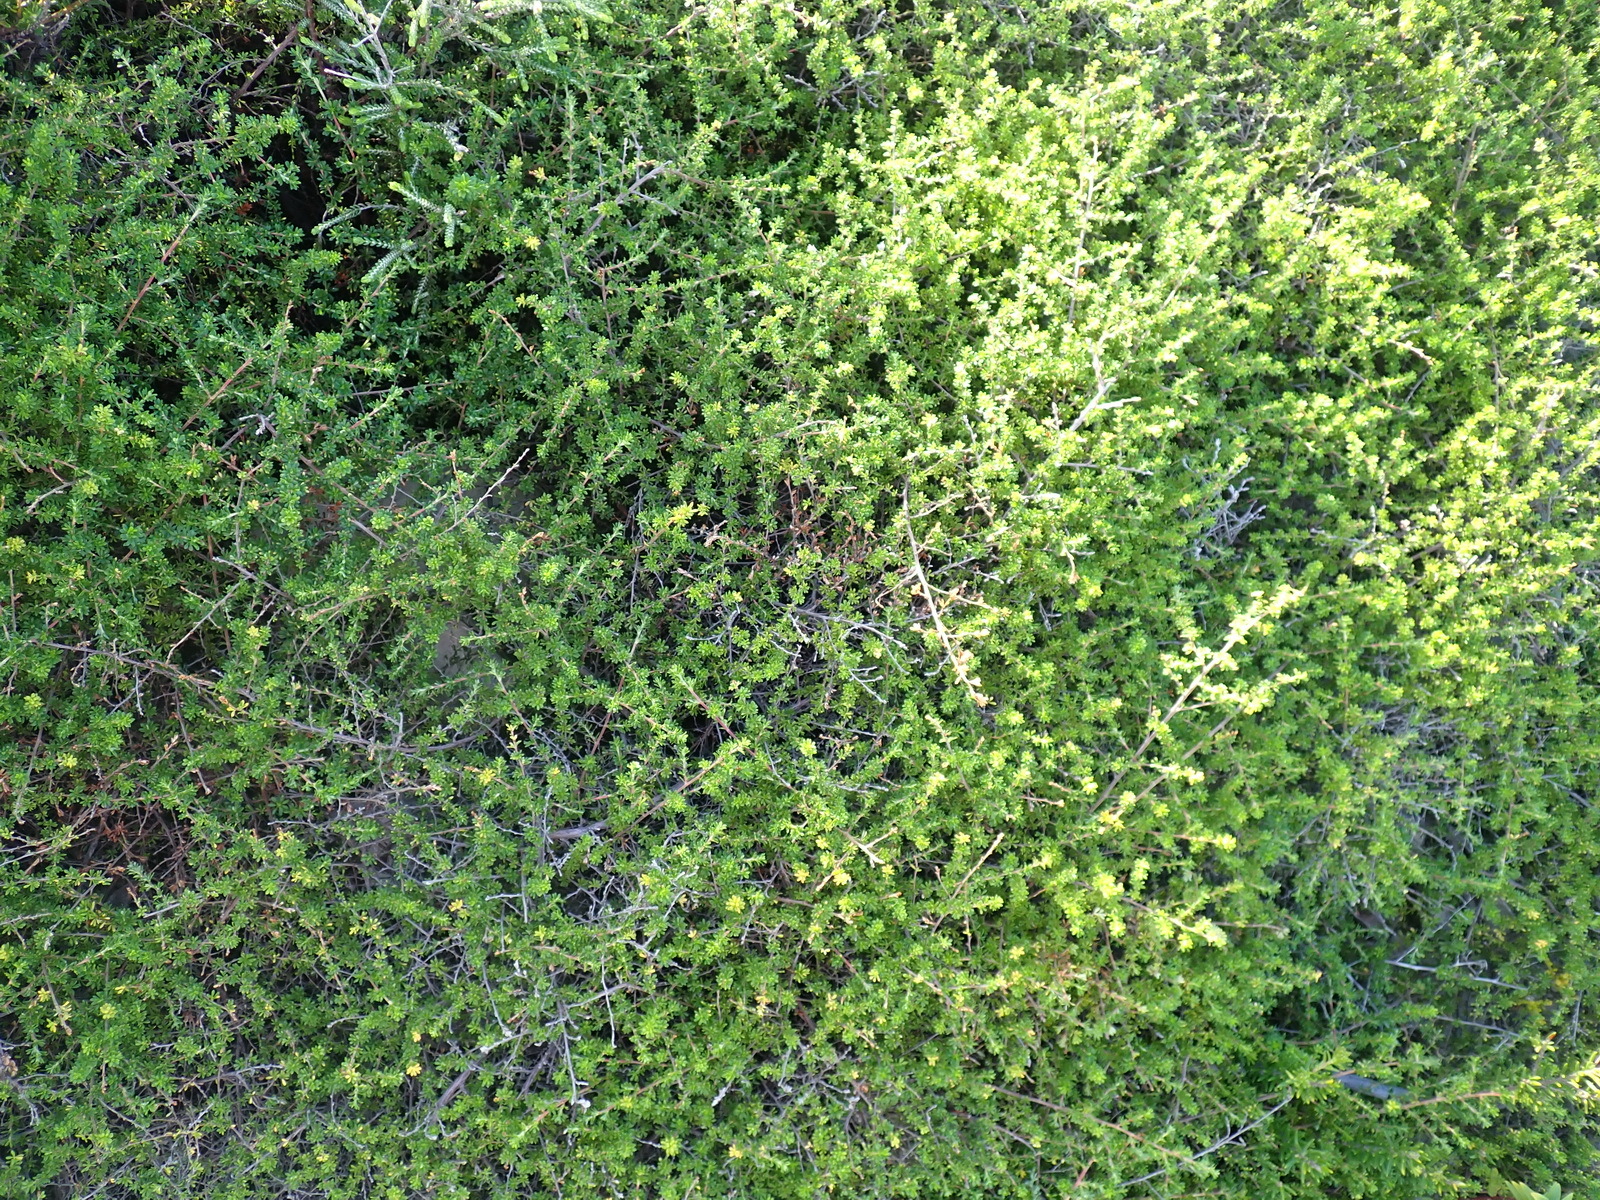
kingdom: Plantae
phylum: Tracheophyta
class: Magnoliopsida
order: Rosales
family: Rosaceae
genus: Cliffortia
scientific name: Cliffortia serpyllifolia
